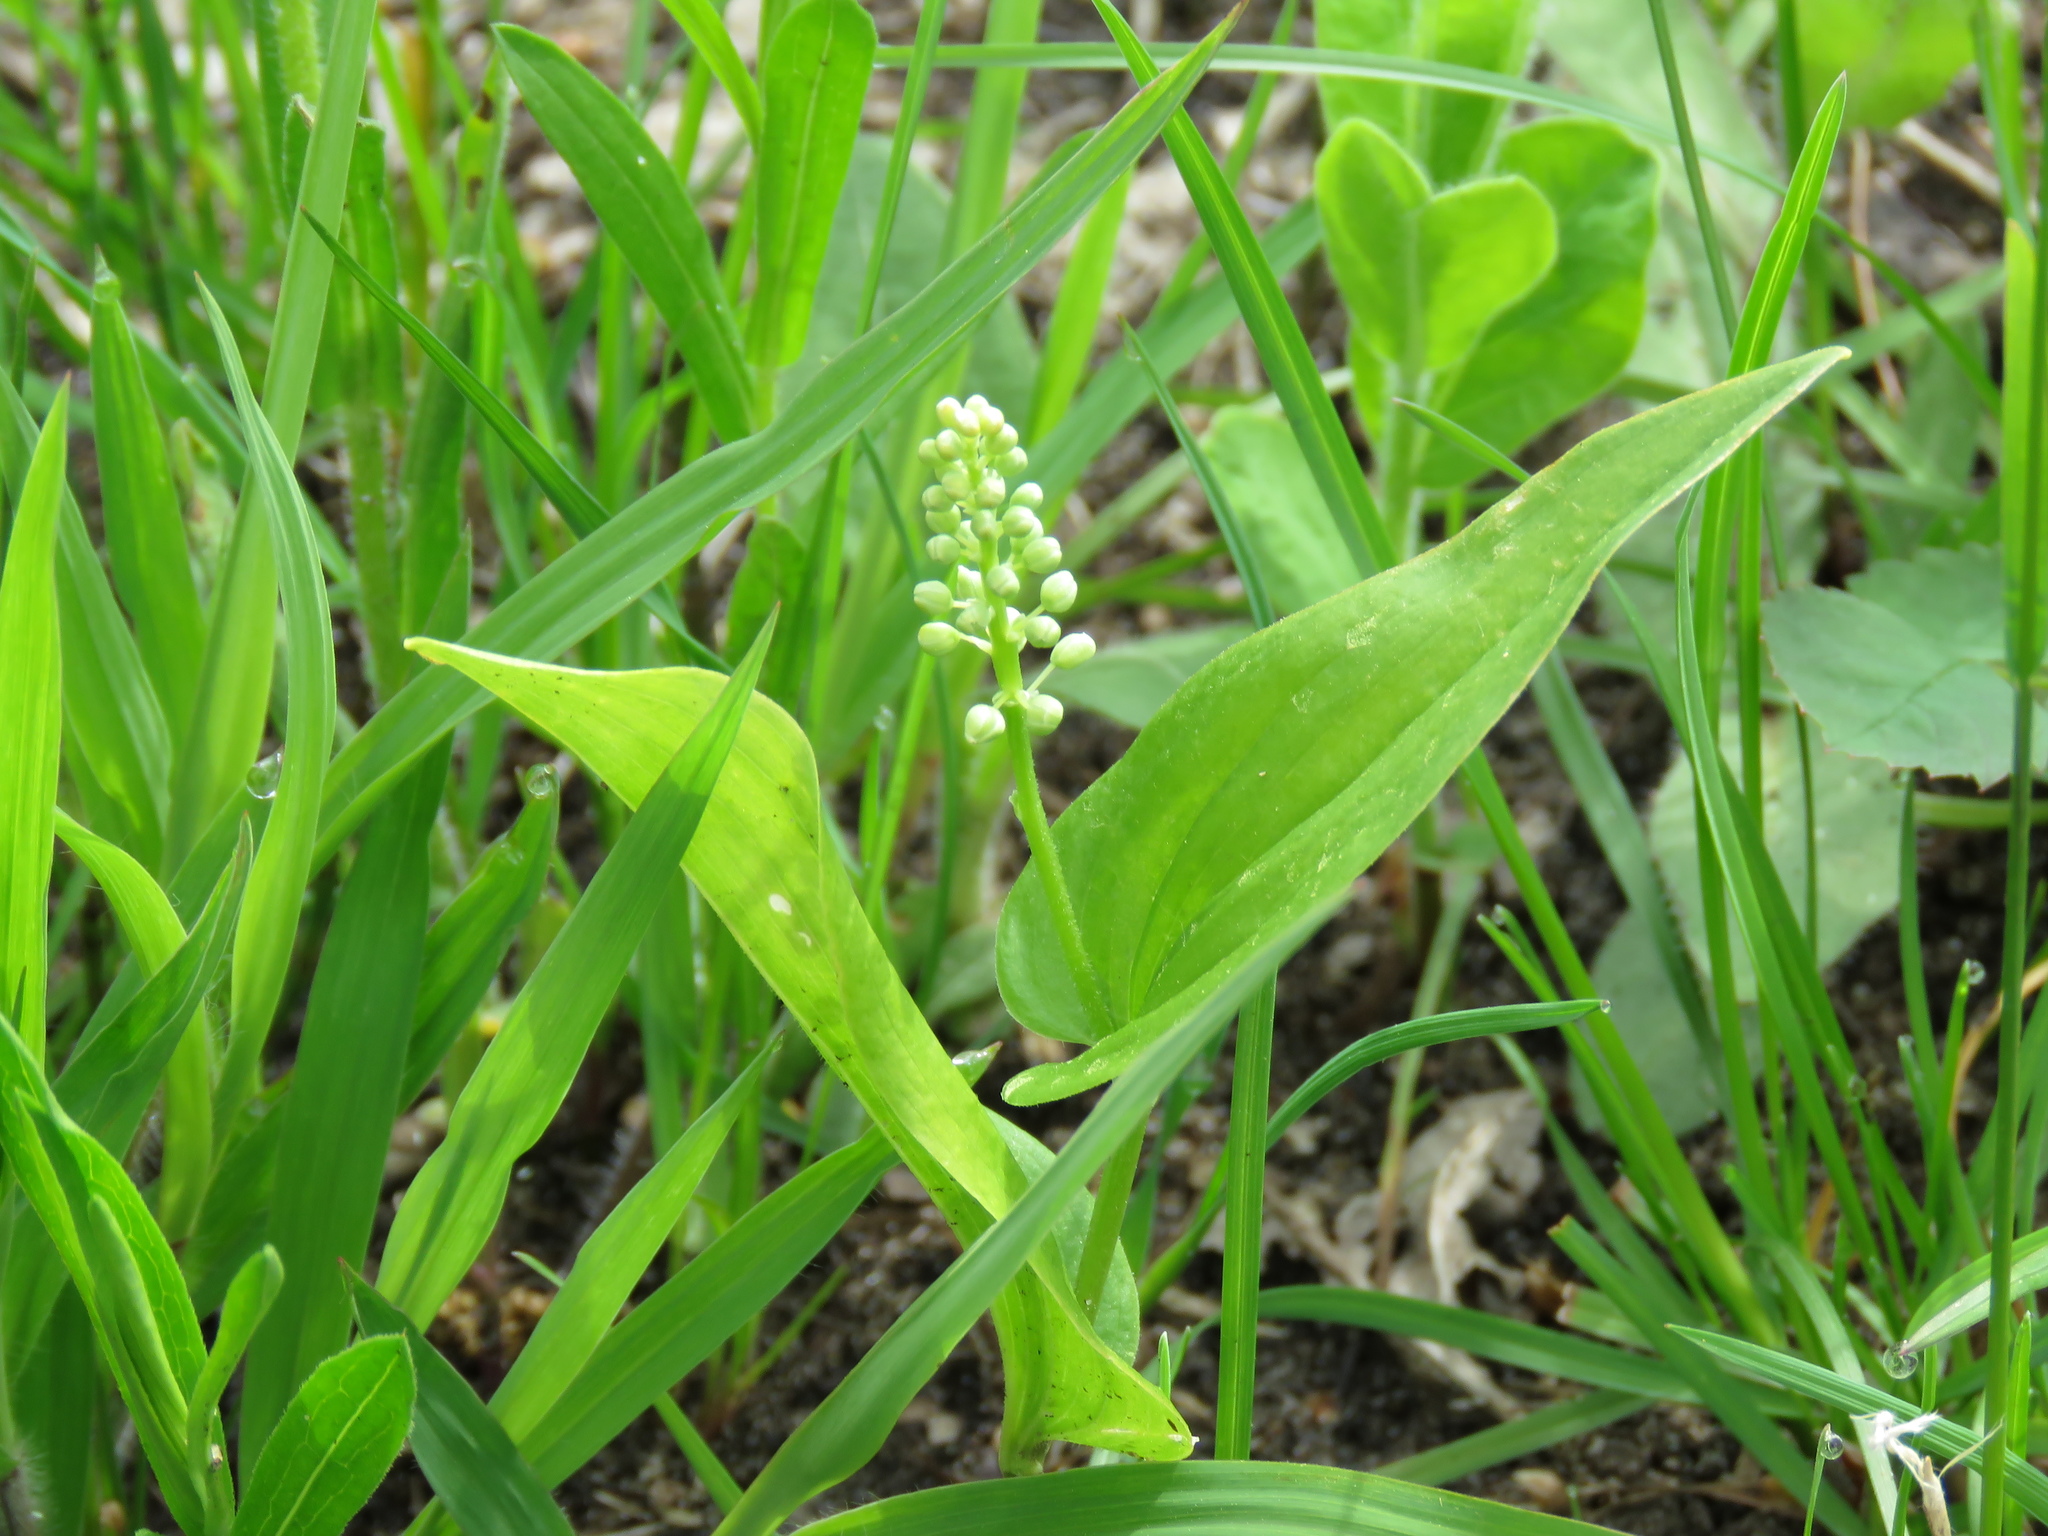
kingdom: Plantae
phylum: Tracheophyta
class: Liliopsida
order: Asparagales
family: Asparagaceae
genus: Maianthemum
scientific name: Maianthemum canadense
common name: False lily-of-the-valley
